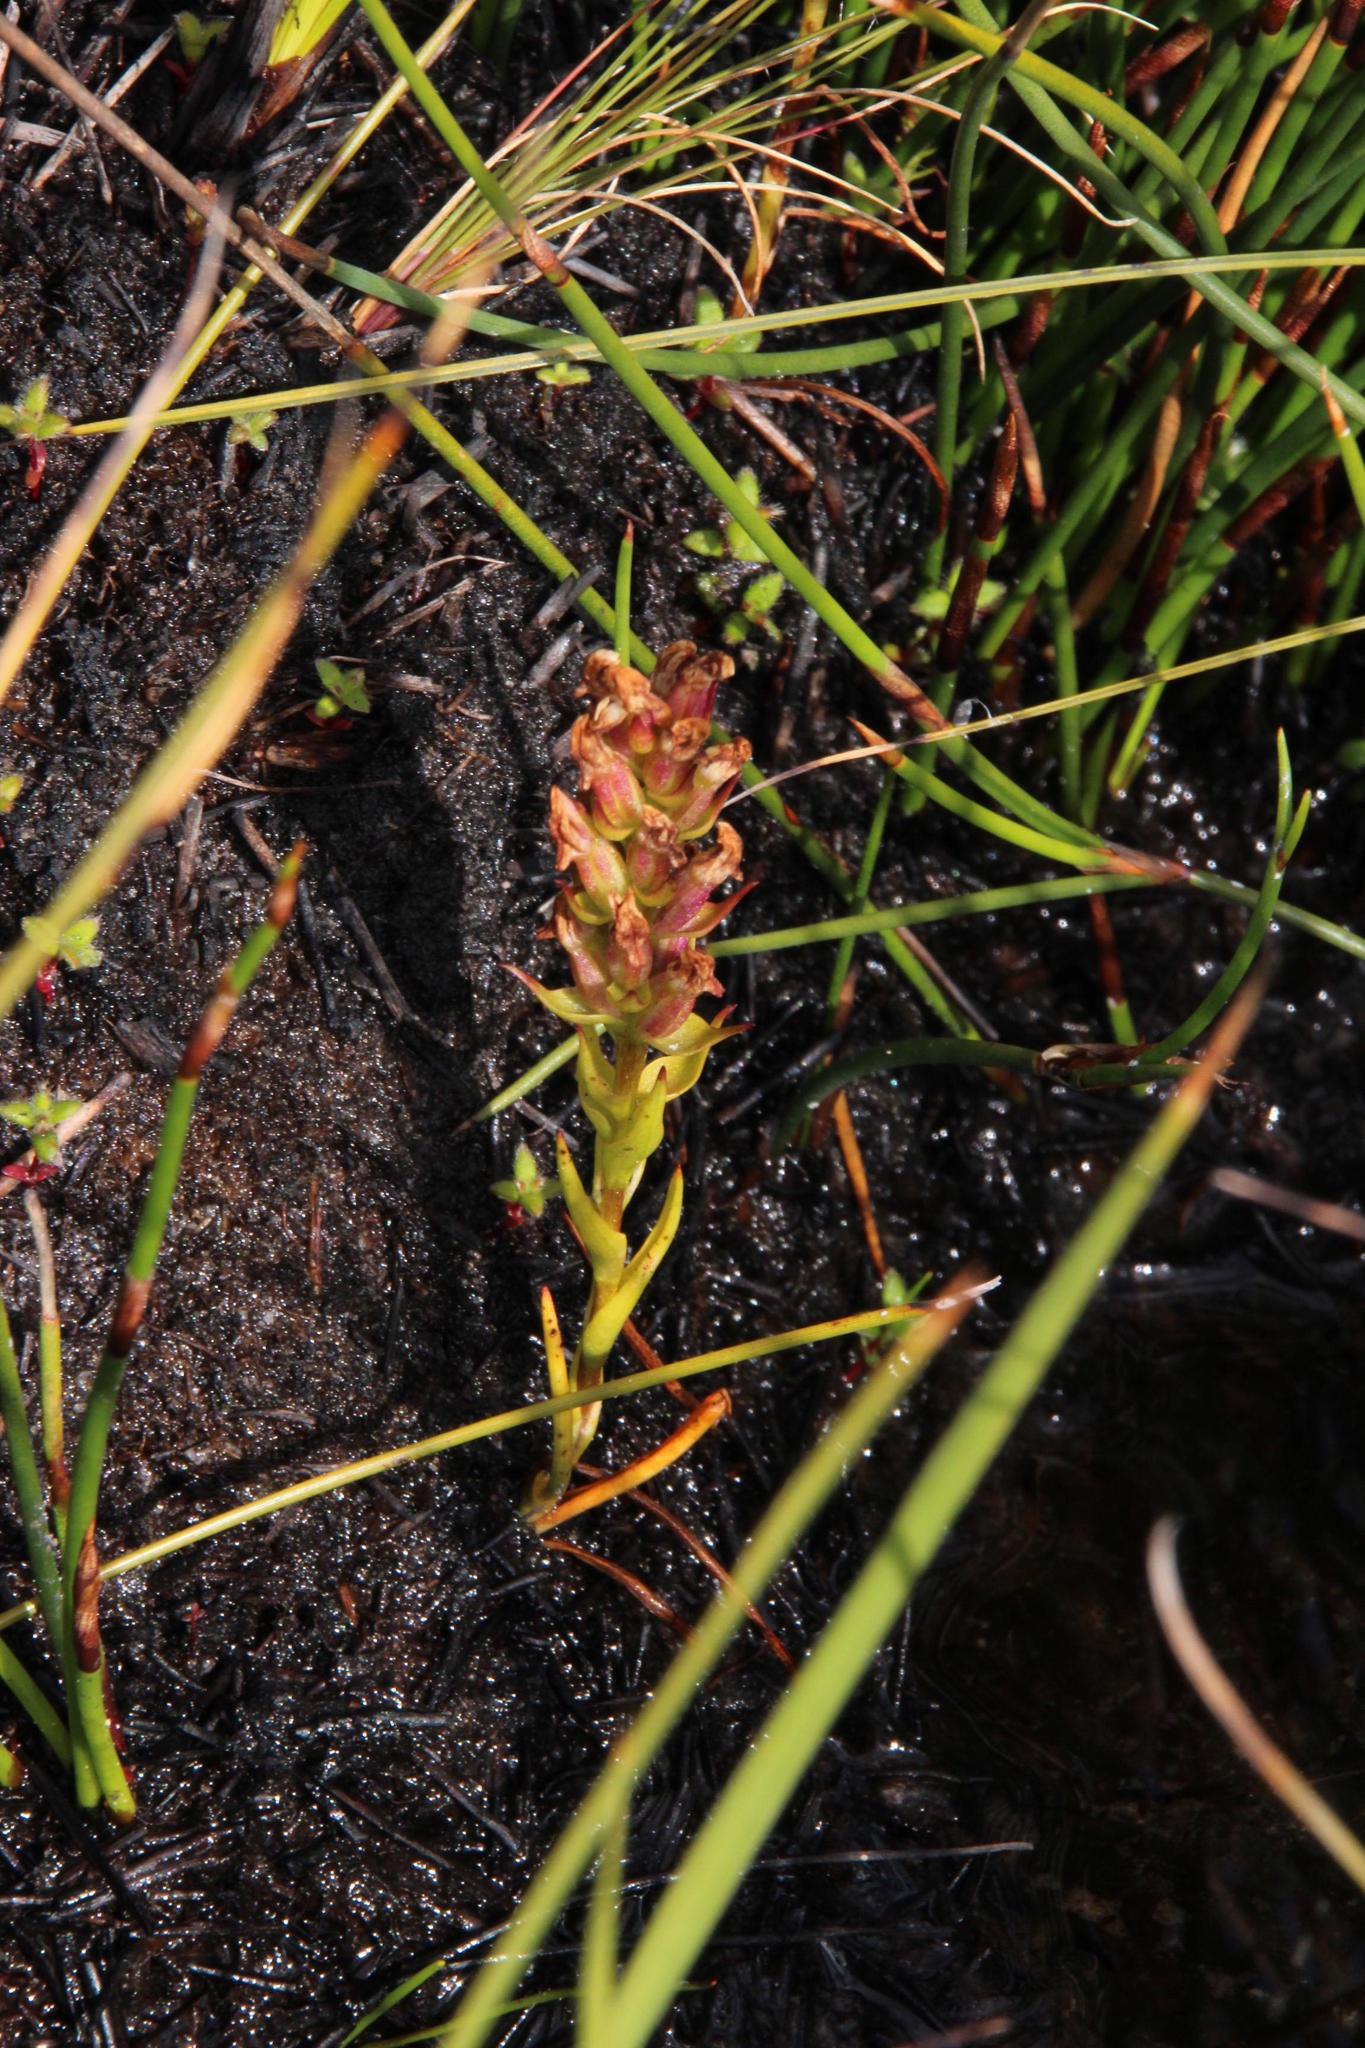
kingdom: Plantae
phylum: Tracheophyta
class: Liliopsida
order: Asparagales
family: Orchidaceae
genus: Disa
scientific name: Disa obtusa
